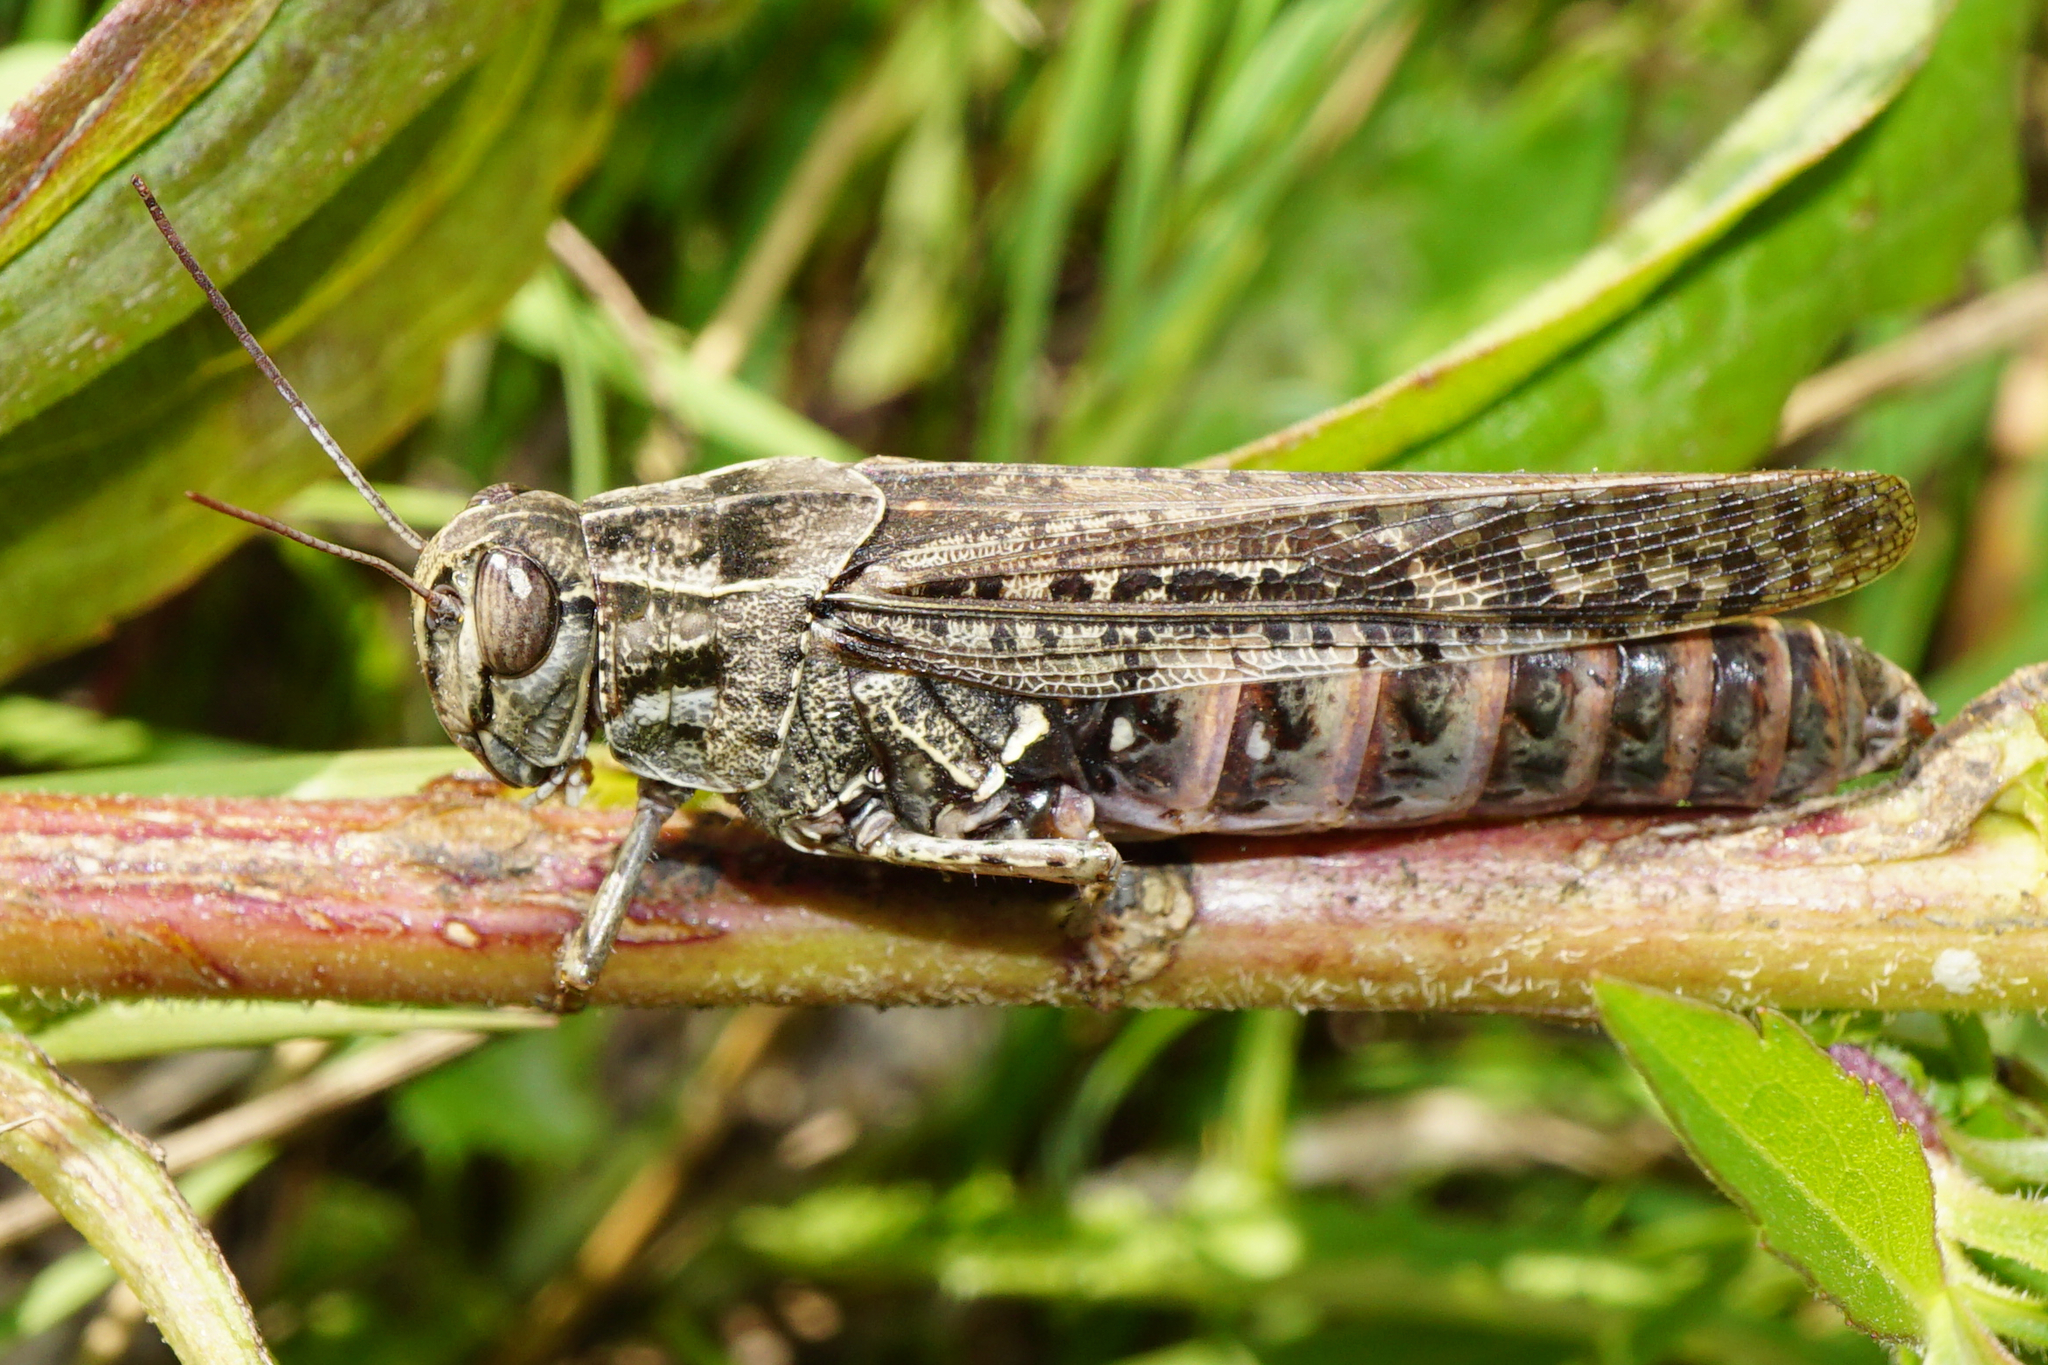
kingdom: Animalia
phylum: Arthropoda
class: Insecta
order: Orthoptera
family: Acrididae
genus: Calliptamus
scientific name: Calliptamus italicus
